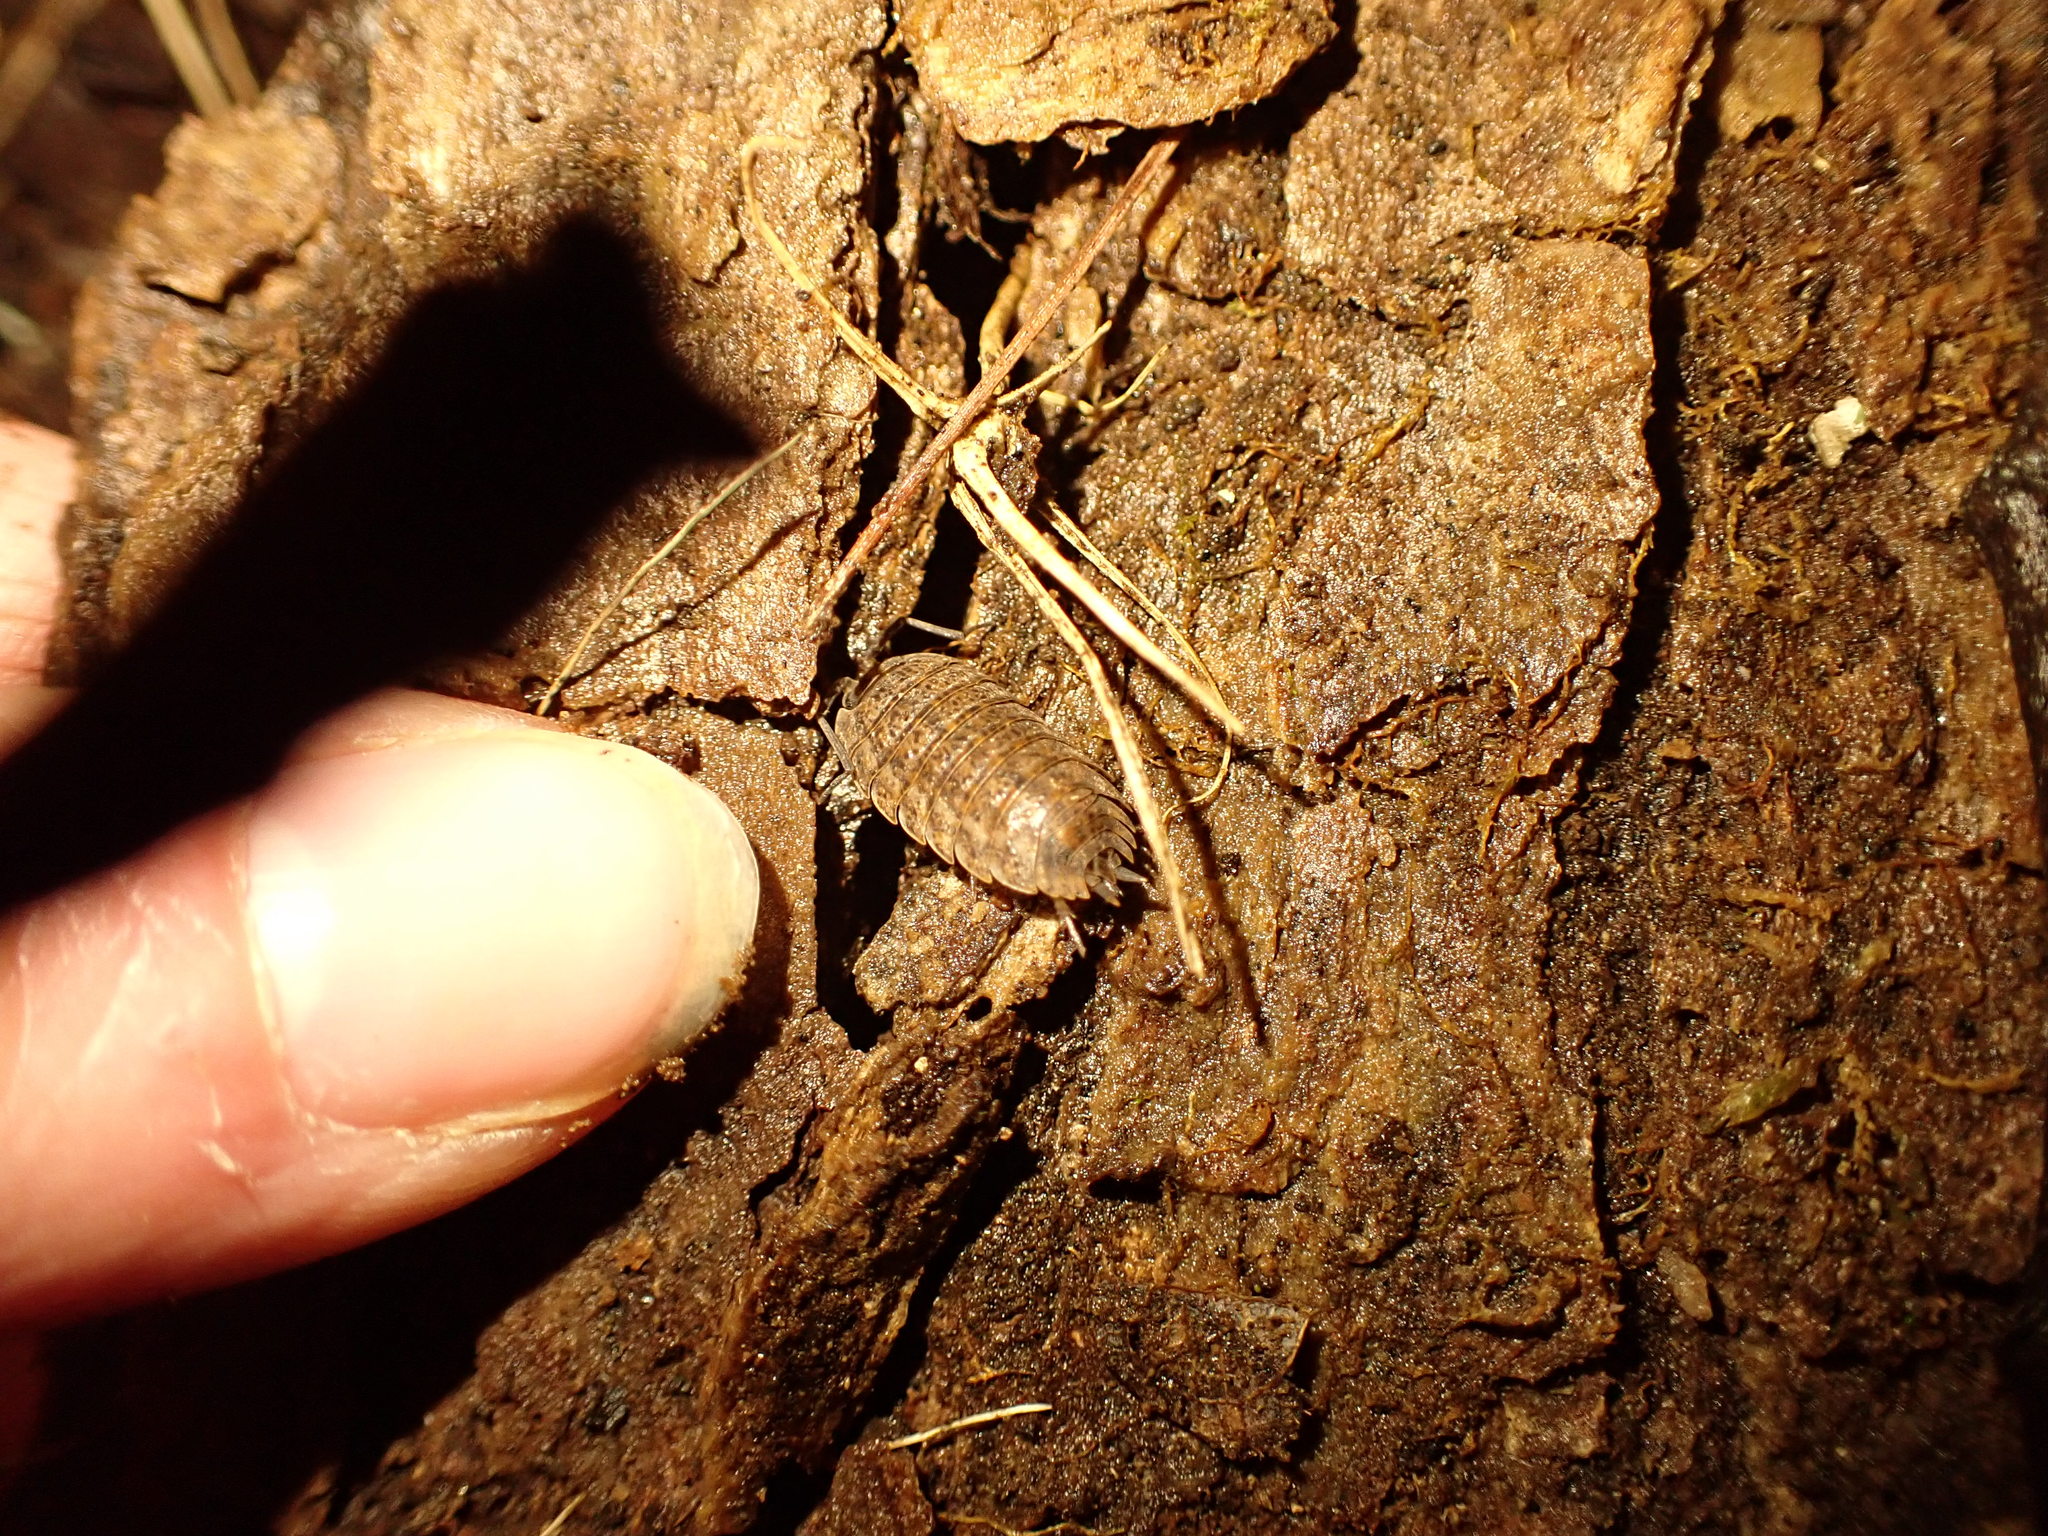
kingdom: Animalia
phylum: Arthropoda
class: Malacostraca
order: Isopoda
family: Trachelipodidae
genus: Trachelipus
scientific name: Trachelipus rathkii
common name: Isopod
